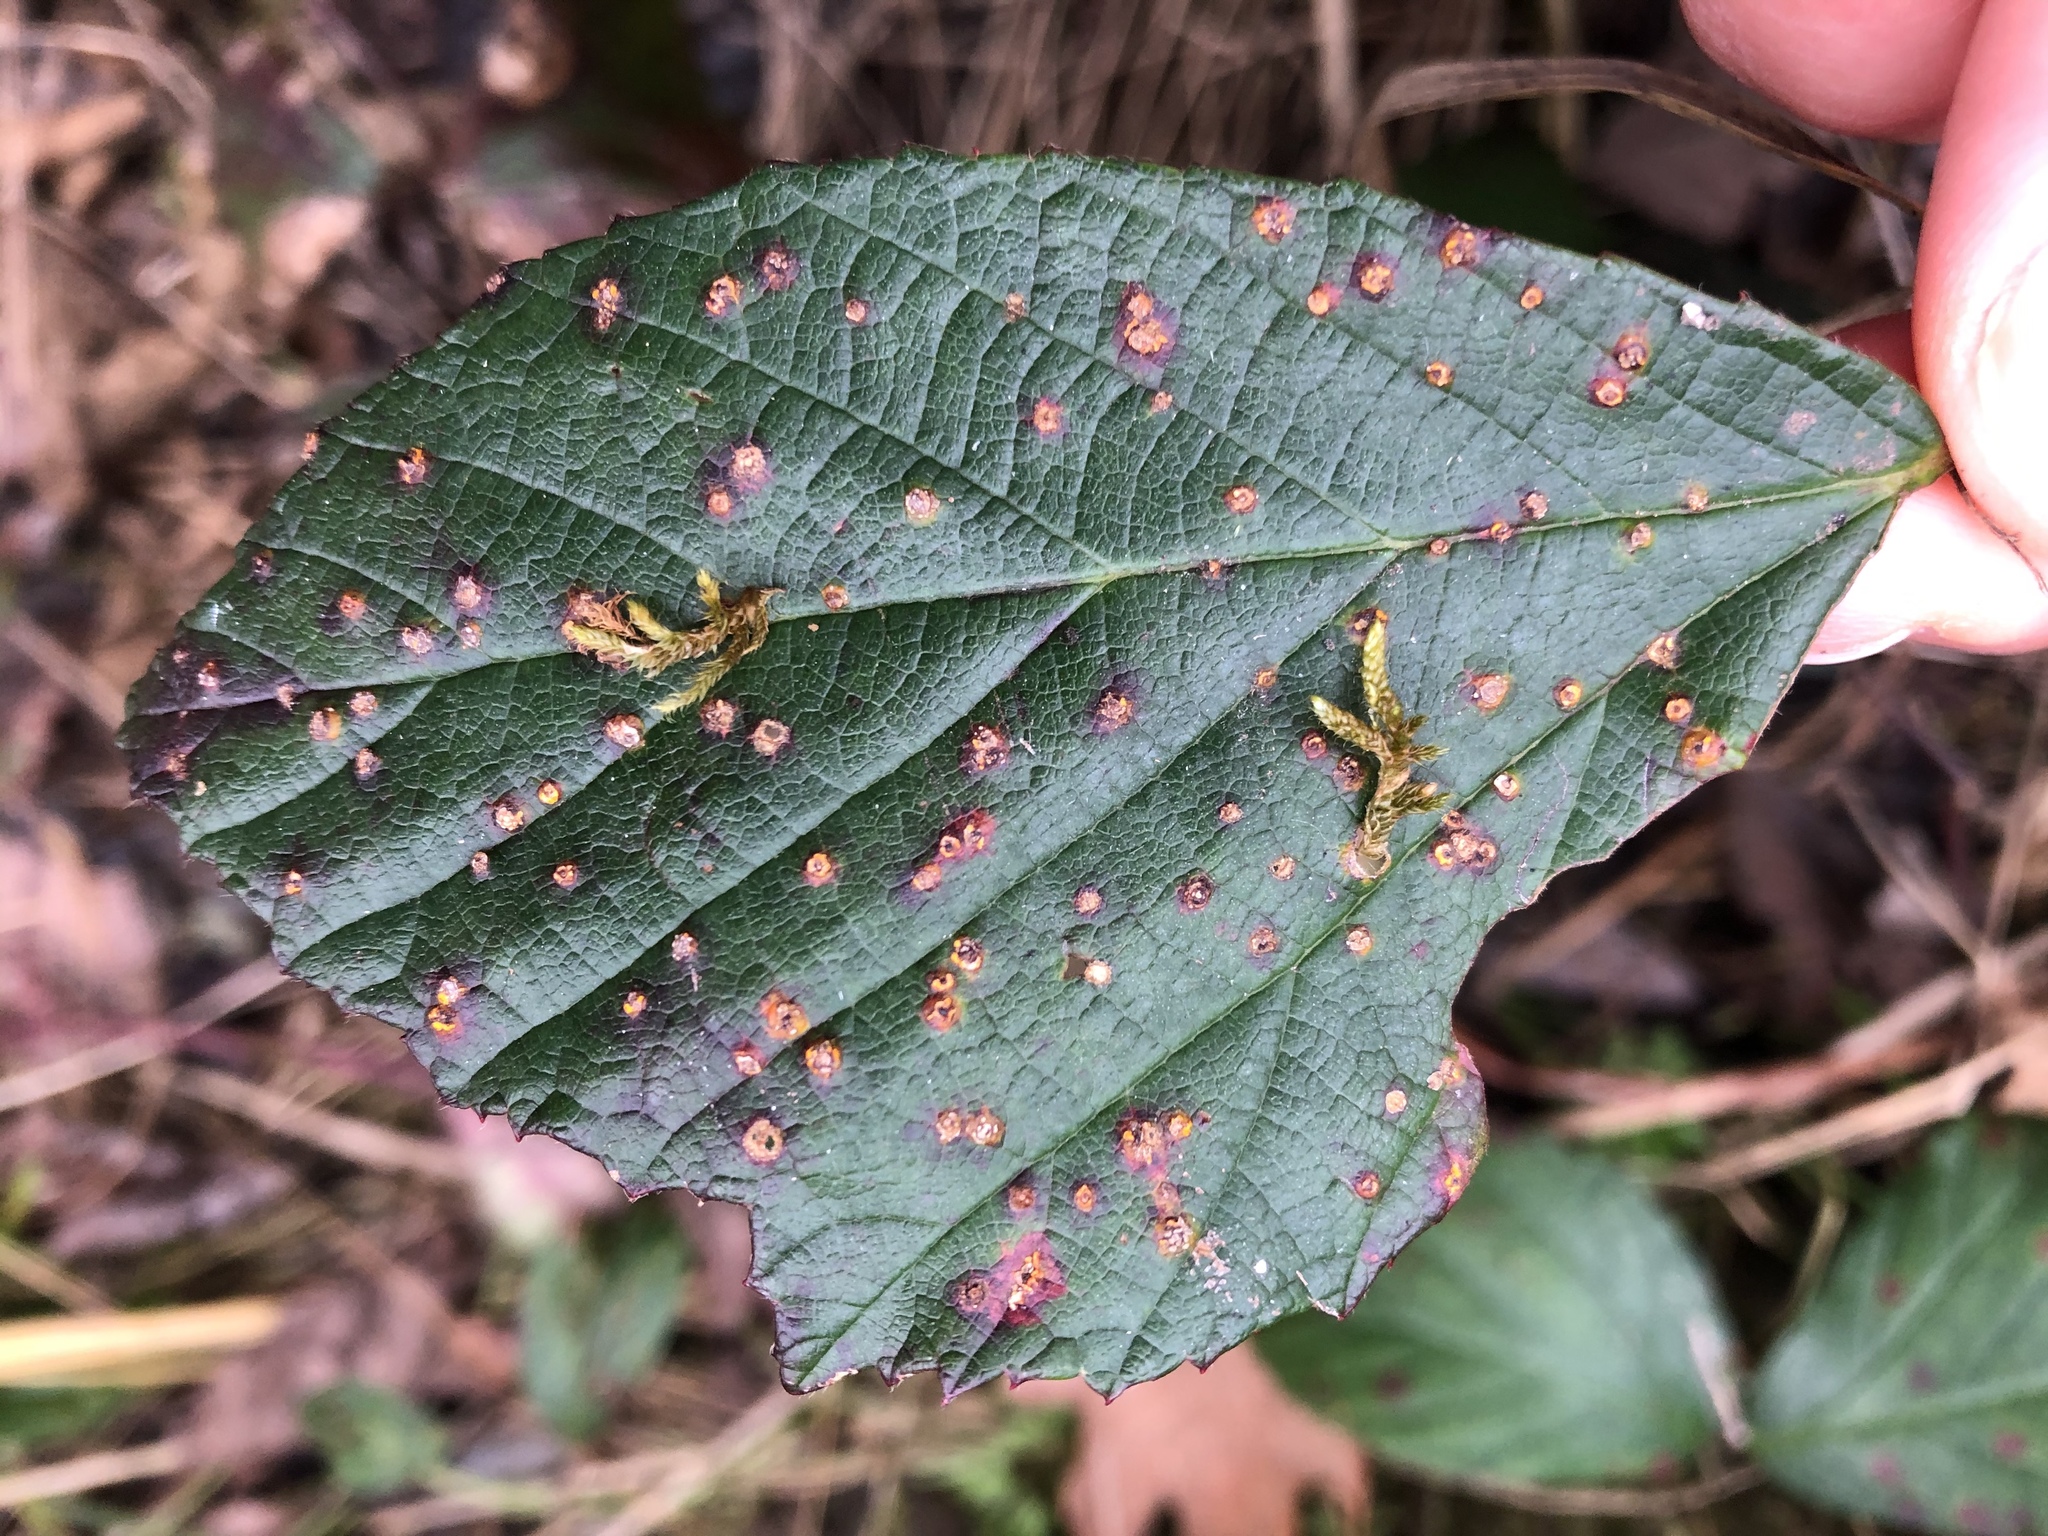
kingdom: Fungi
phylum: Basidiomycota
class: Pucciniomycetes
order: Pucciniales
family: Phragmidiaceae
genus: Kuehneola
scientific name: Kuehneola uredinis
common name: Bramble stem rust
